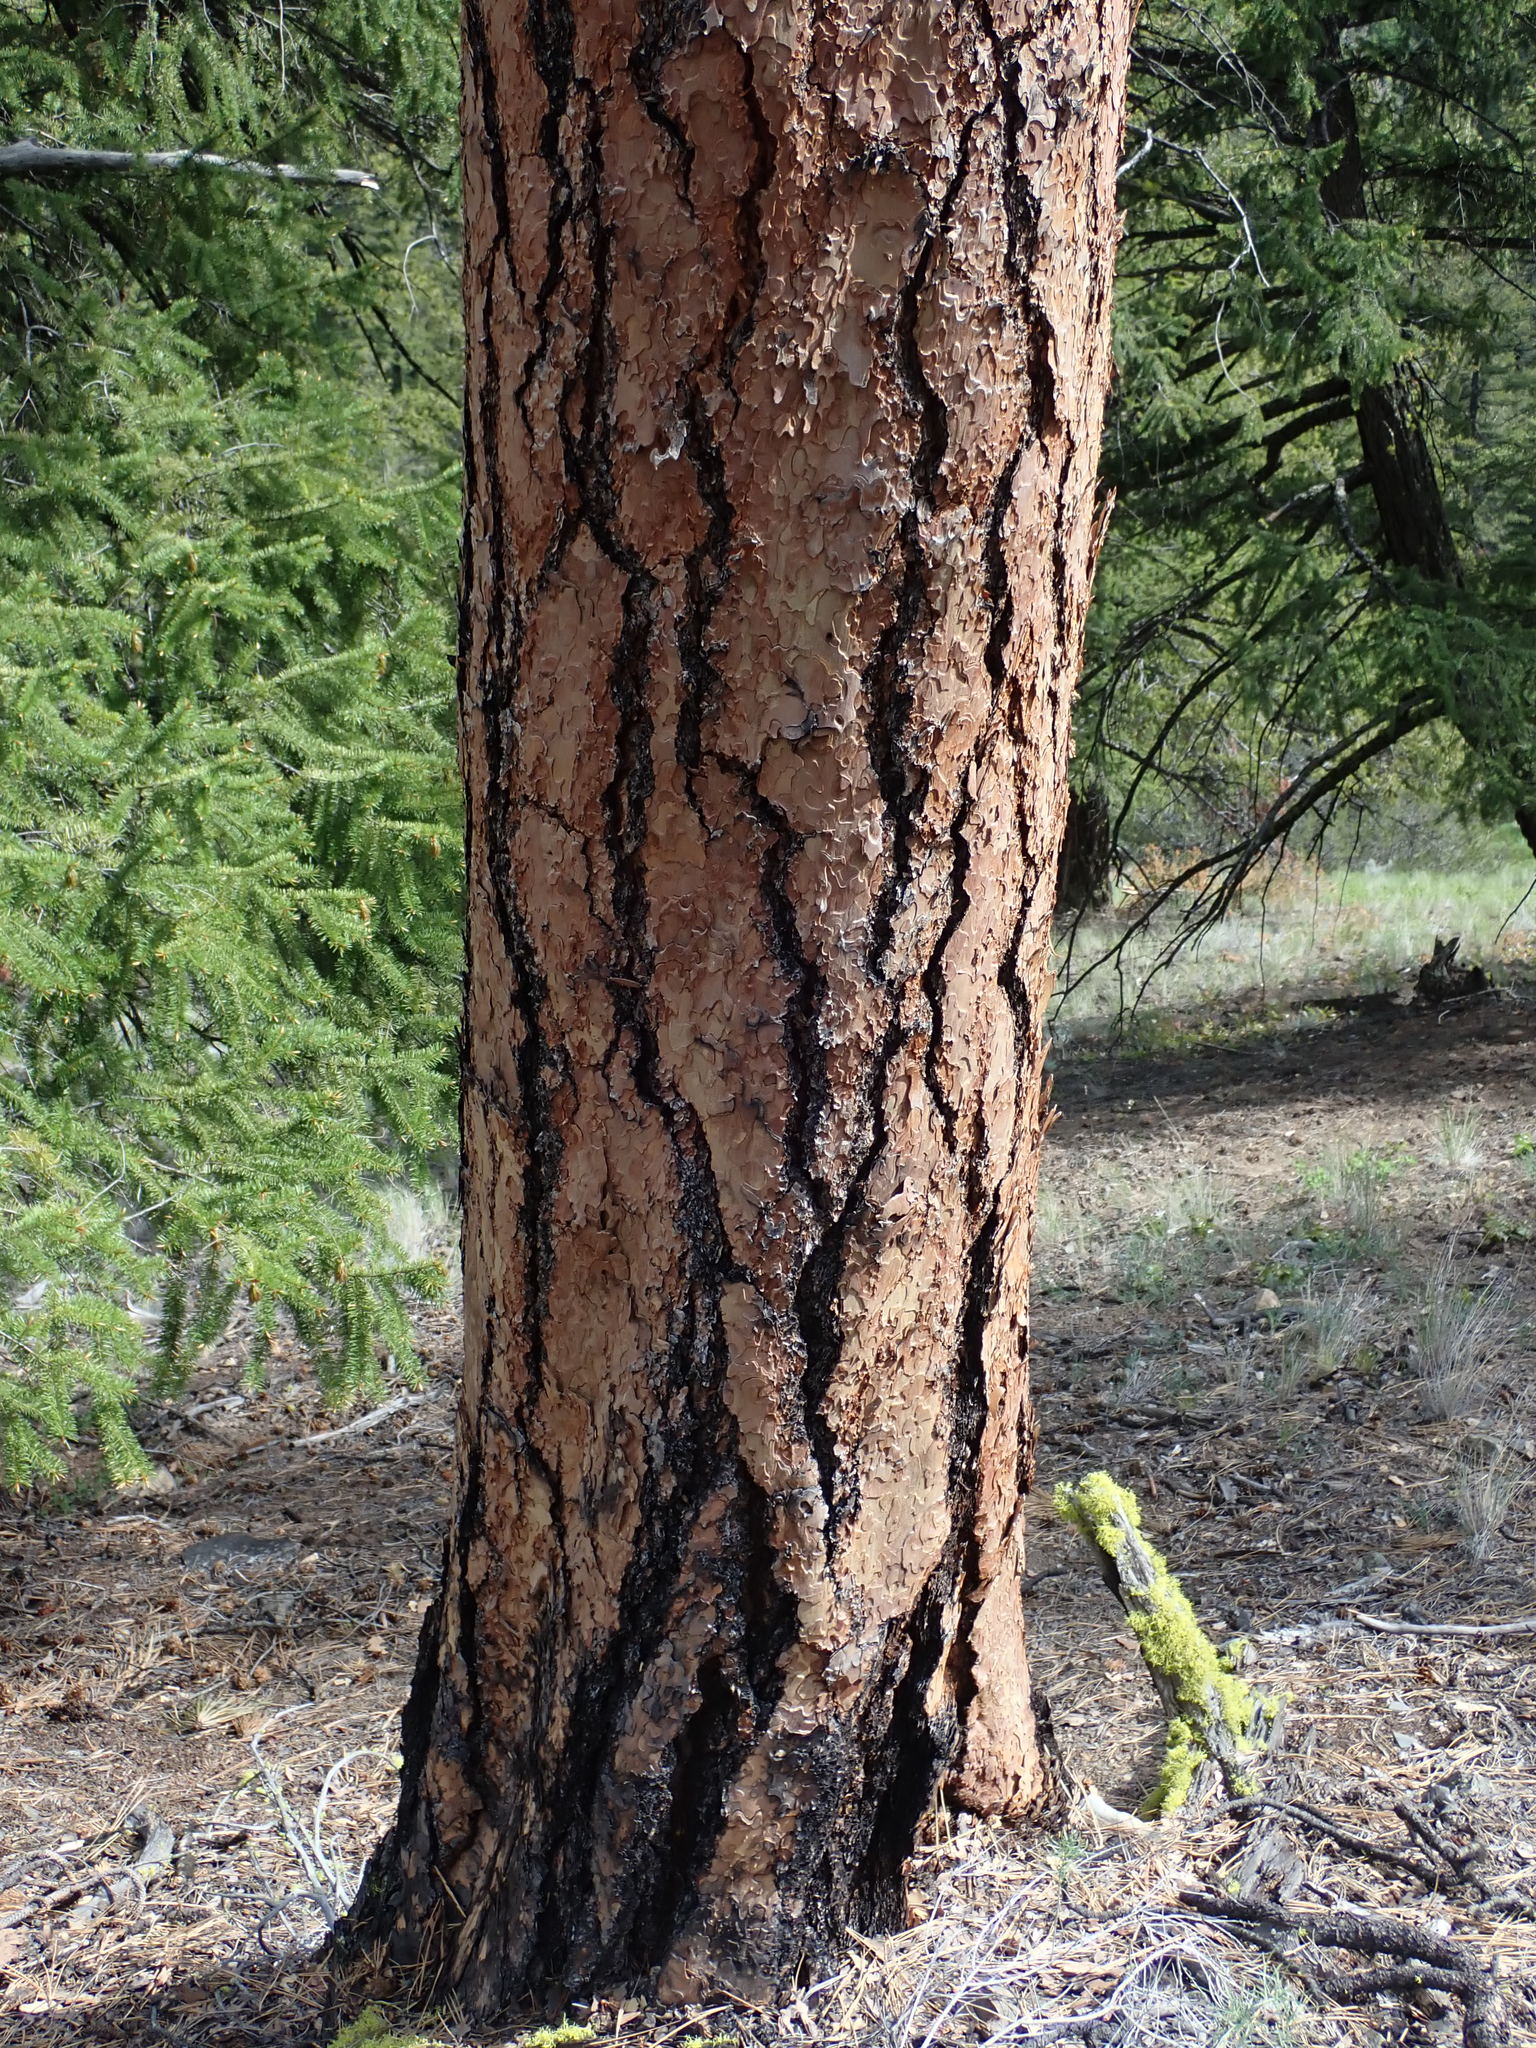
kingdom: Plantae
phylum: Tracheophyta
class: Pinopsida
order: Pinales
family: Pinaceae
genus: Pinus
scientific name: Pinus ponderosa
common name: Western yellow-pine
